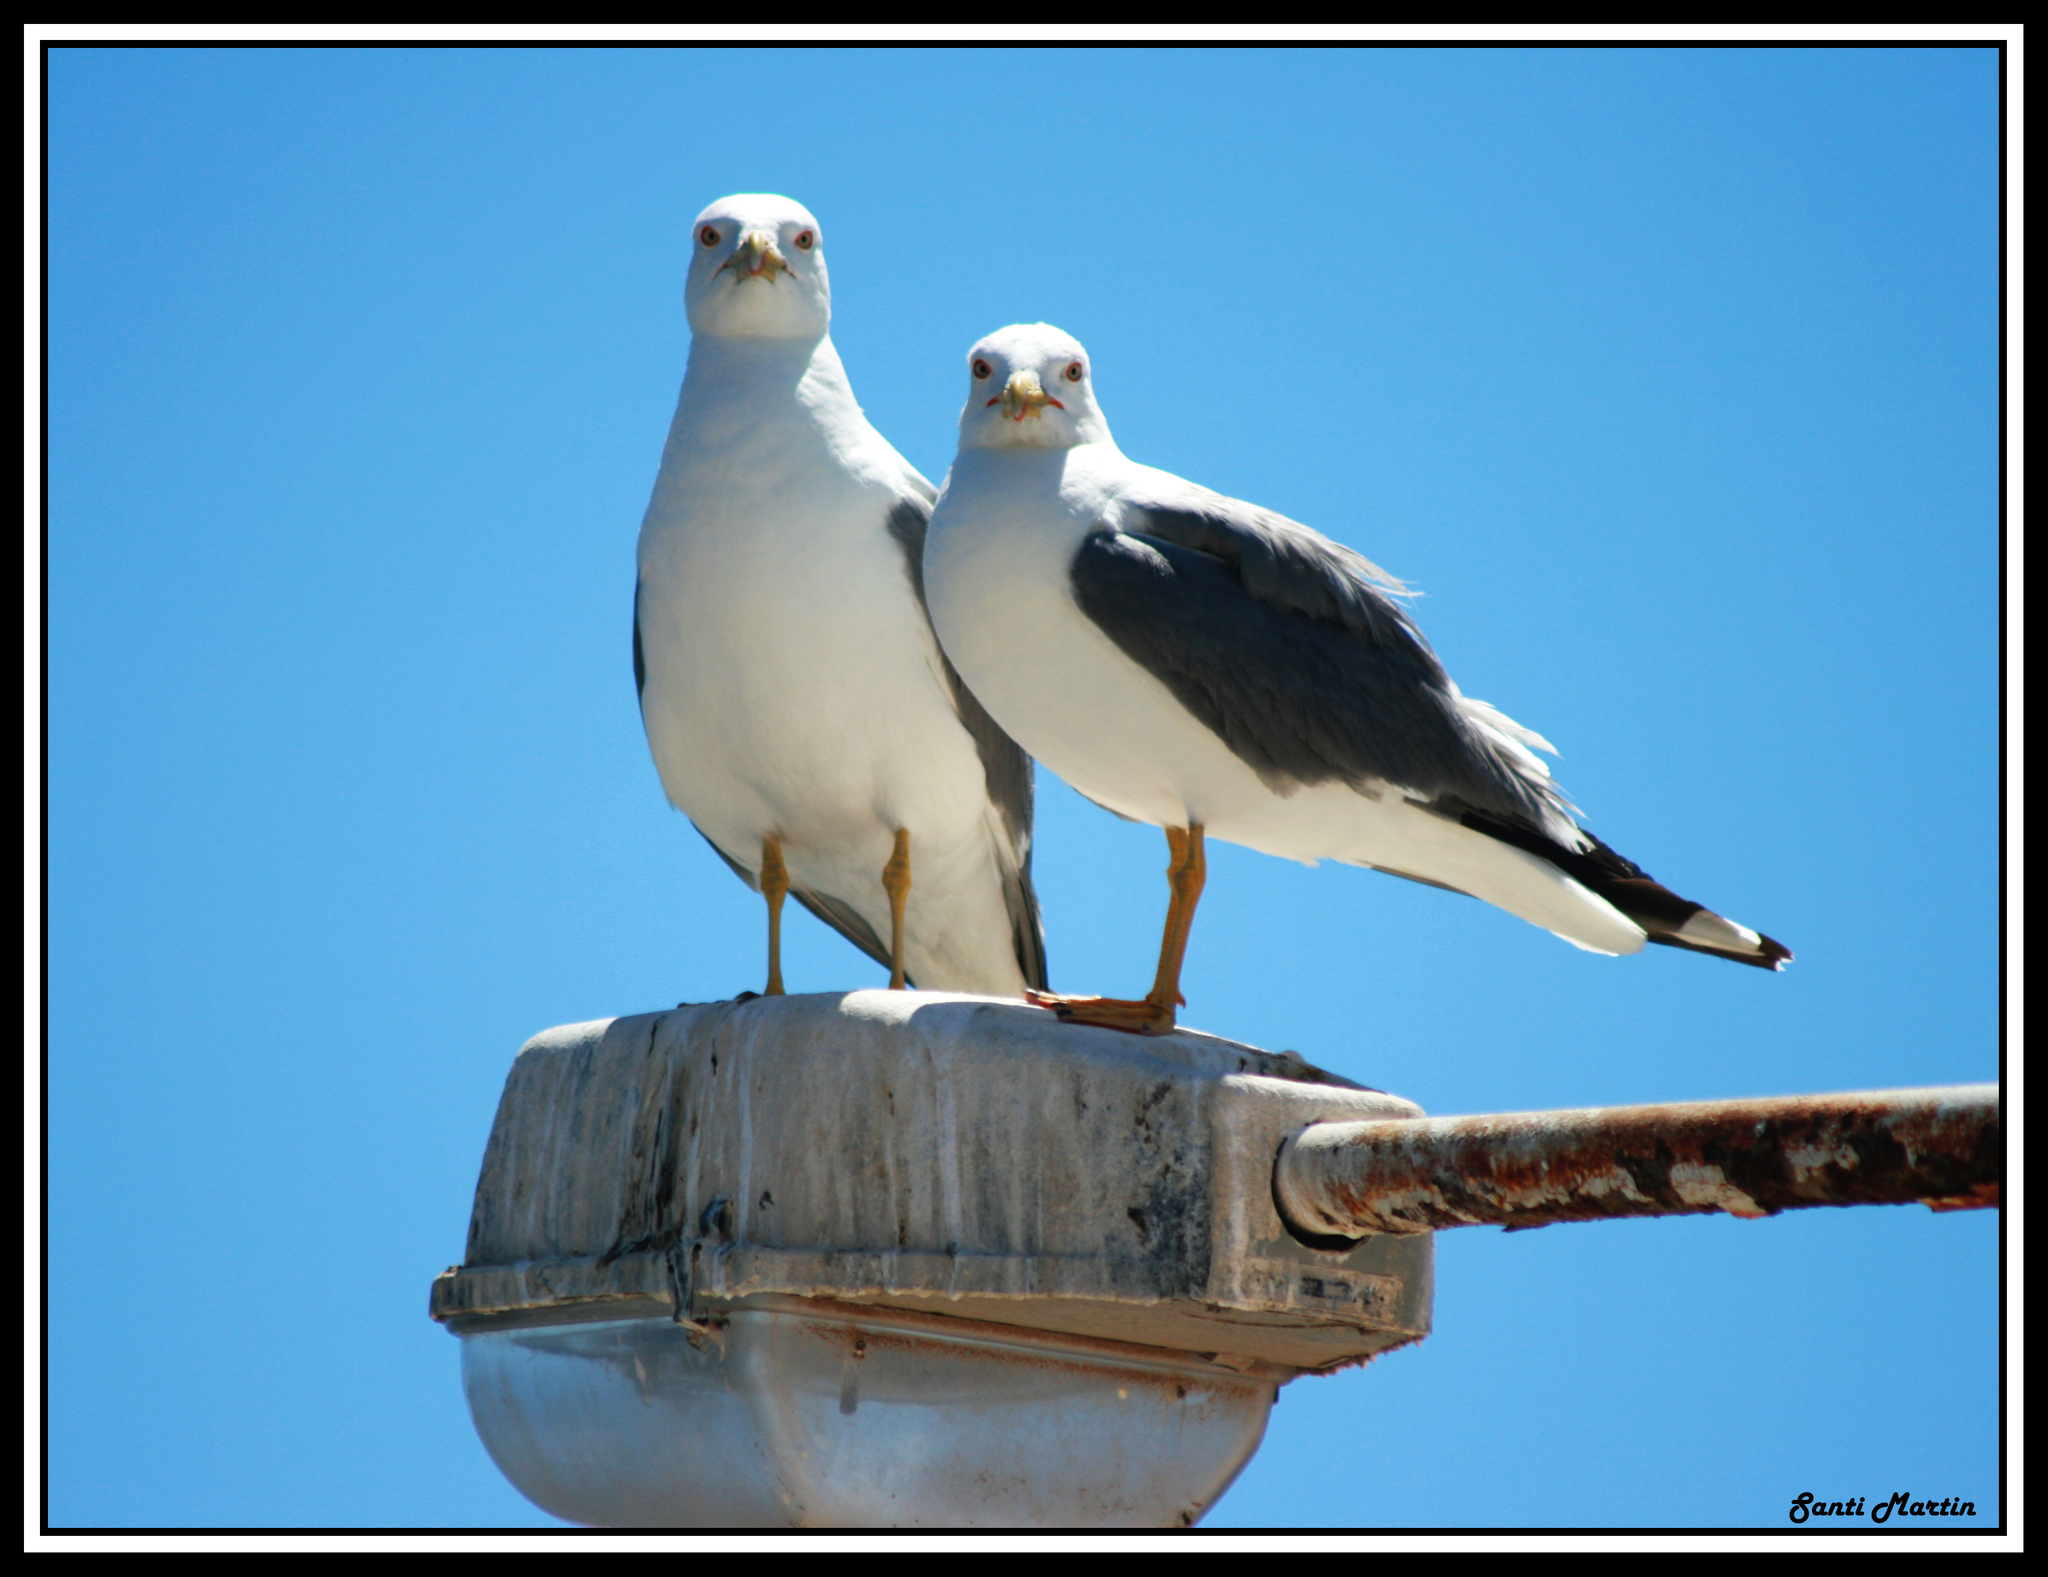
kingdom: Animalia
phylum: Chordata
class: Aves
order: Charadriiformes
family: Laridae
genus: Larus
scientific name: Larus fuscus
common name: Lesser black-backed gull
